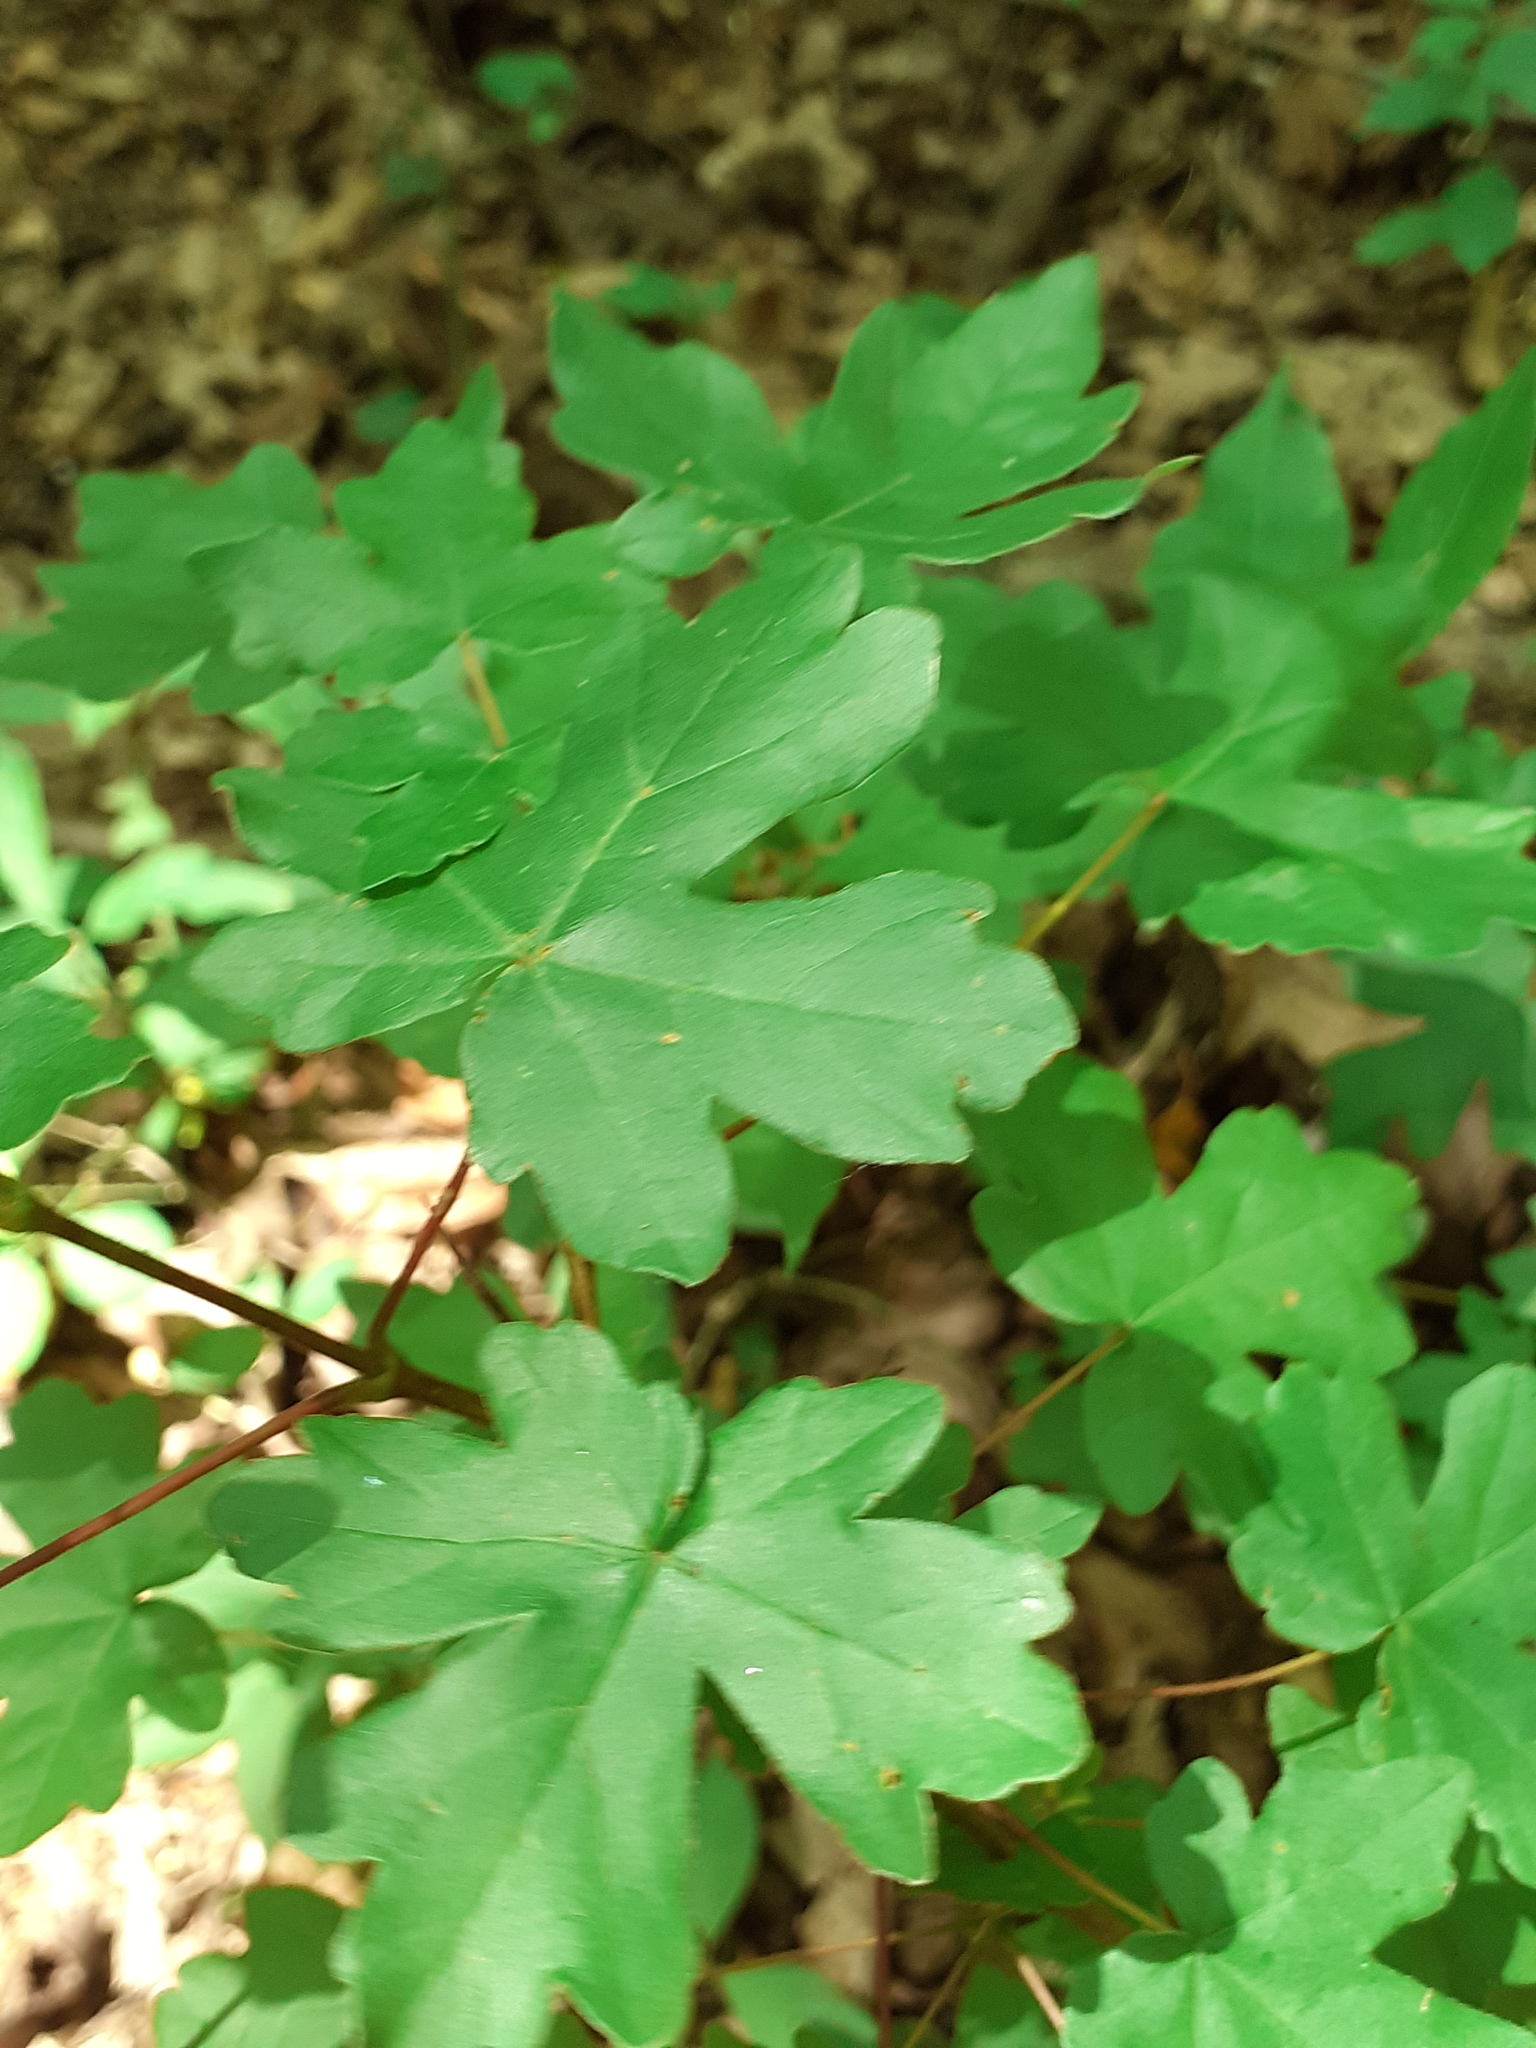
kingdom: Plantae
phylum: Tracheophyta
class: Magnoliopsida
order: Sapindales
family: Sapindaceae
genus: Acer
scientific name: Acer campestre
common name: Field maple
